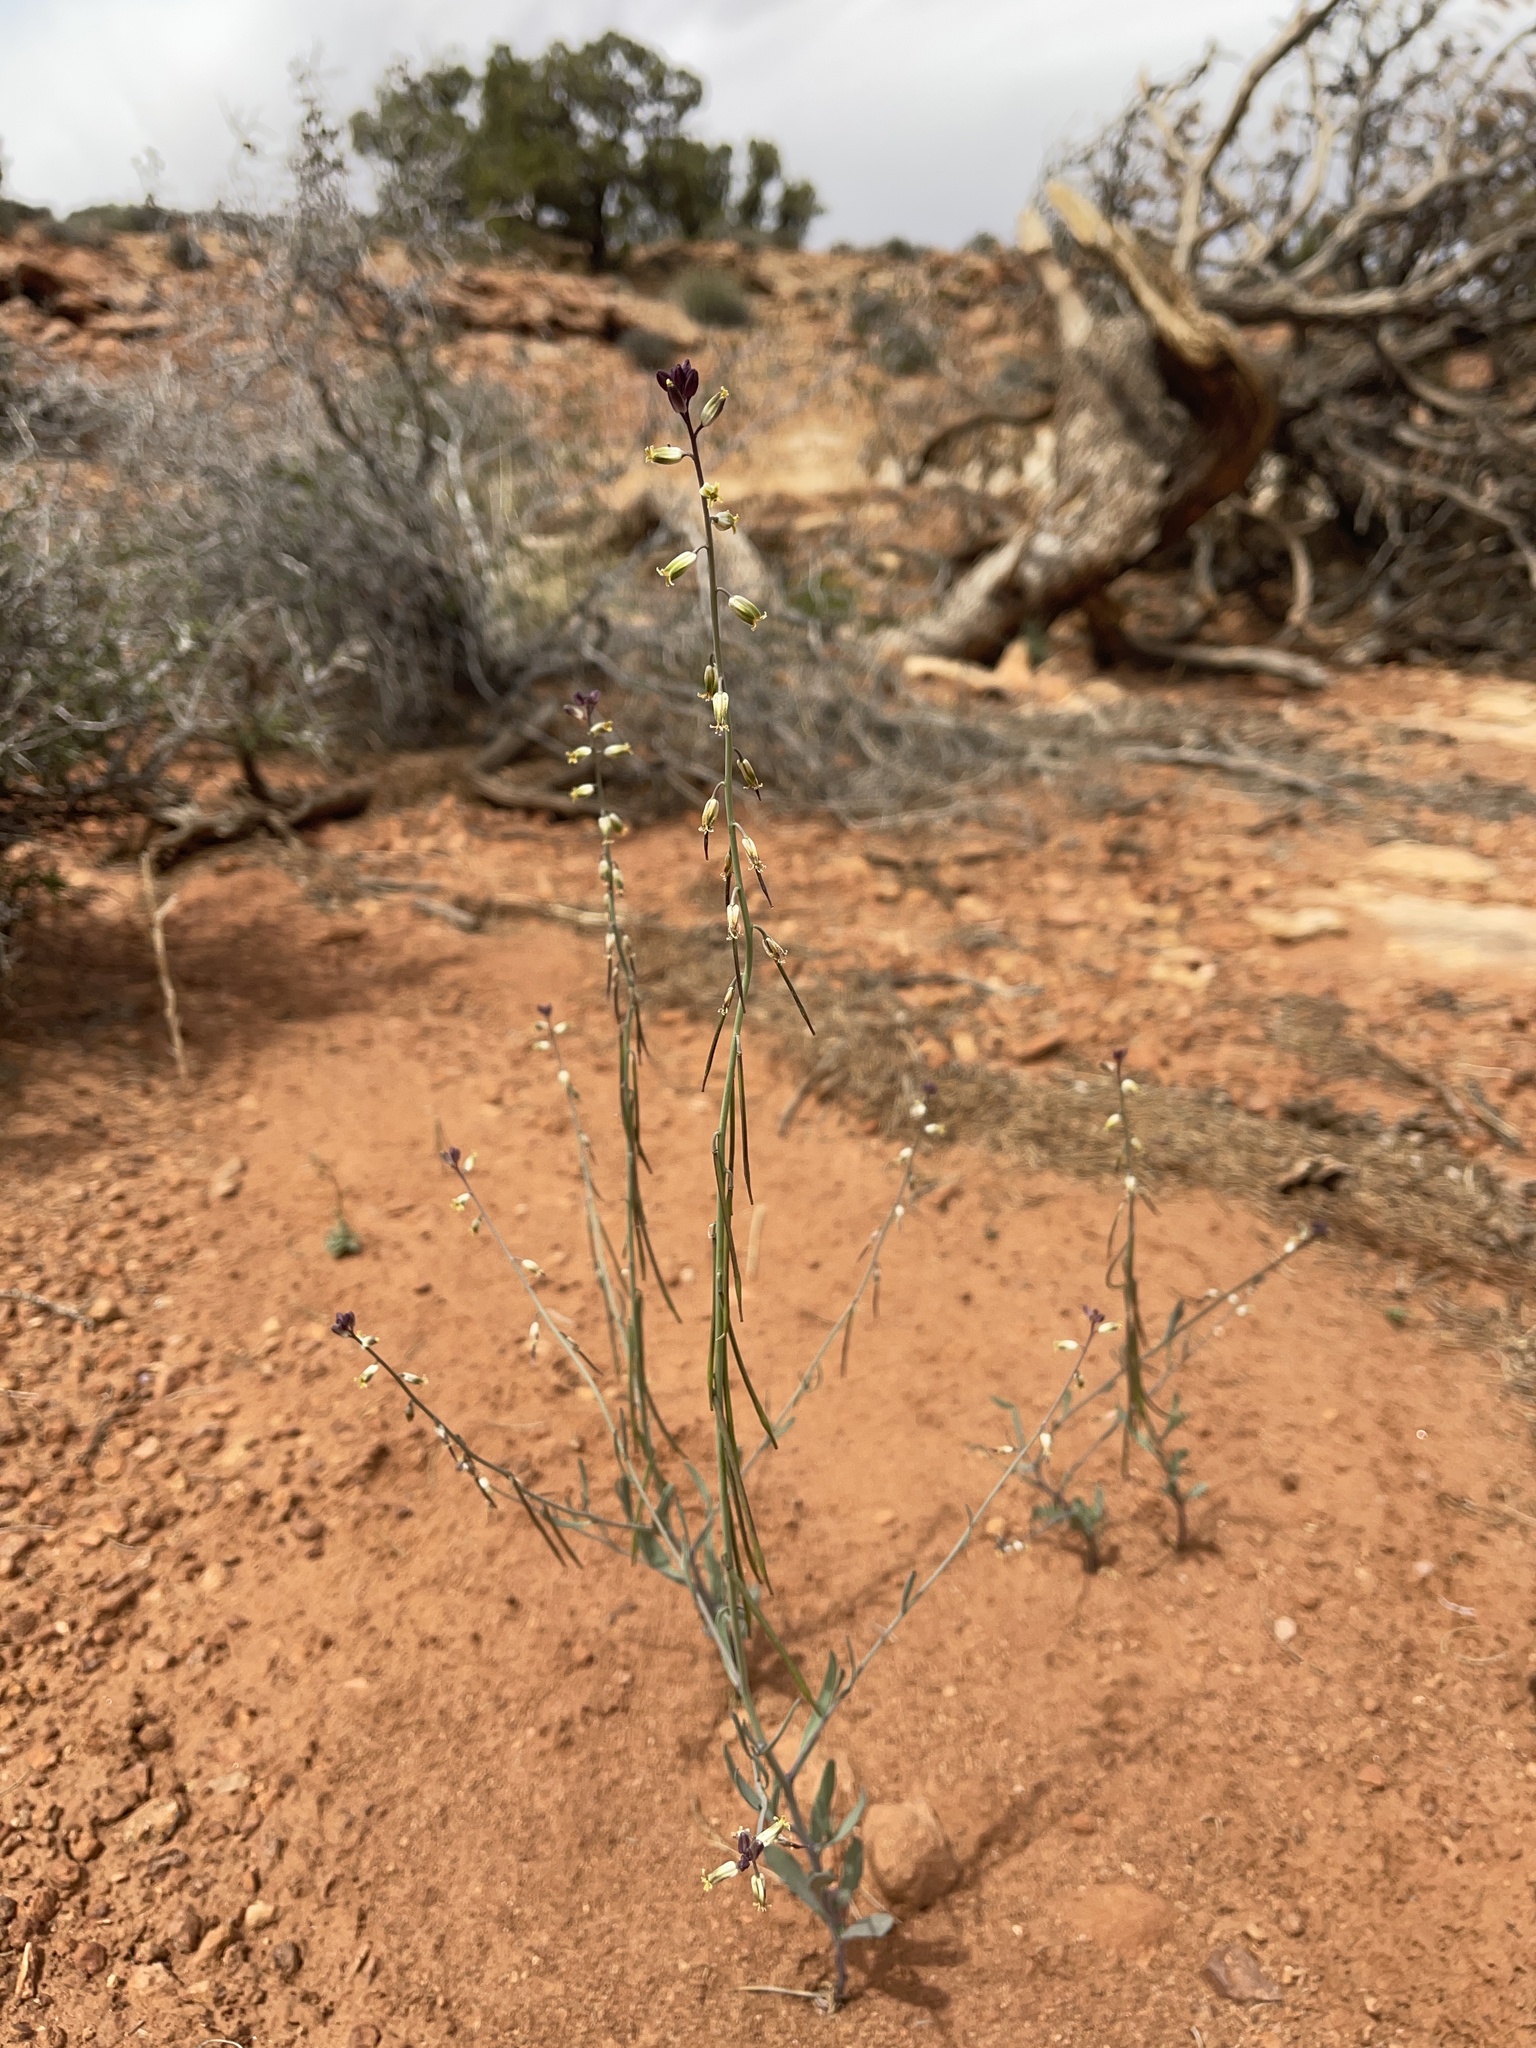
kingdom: Plantae
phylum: Tracheophyta
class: Magnoliopsida
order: Brassicales
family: Brassicaceae
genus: Streptanthus
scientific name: Streptanthus longirostris
